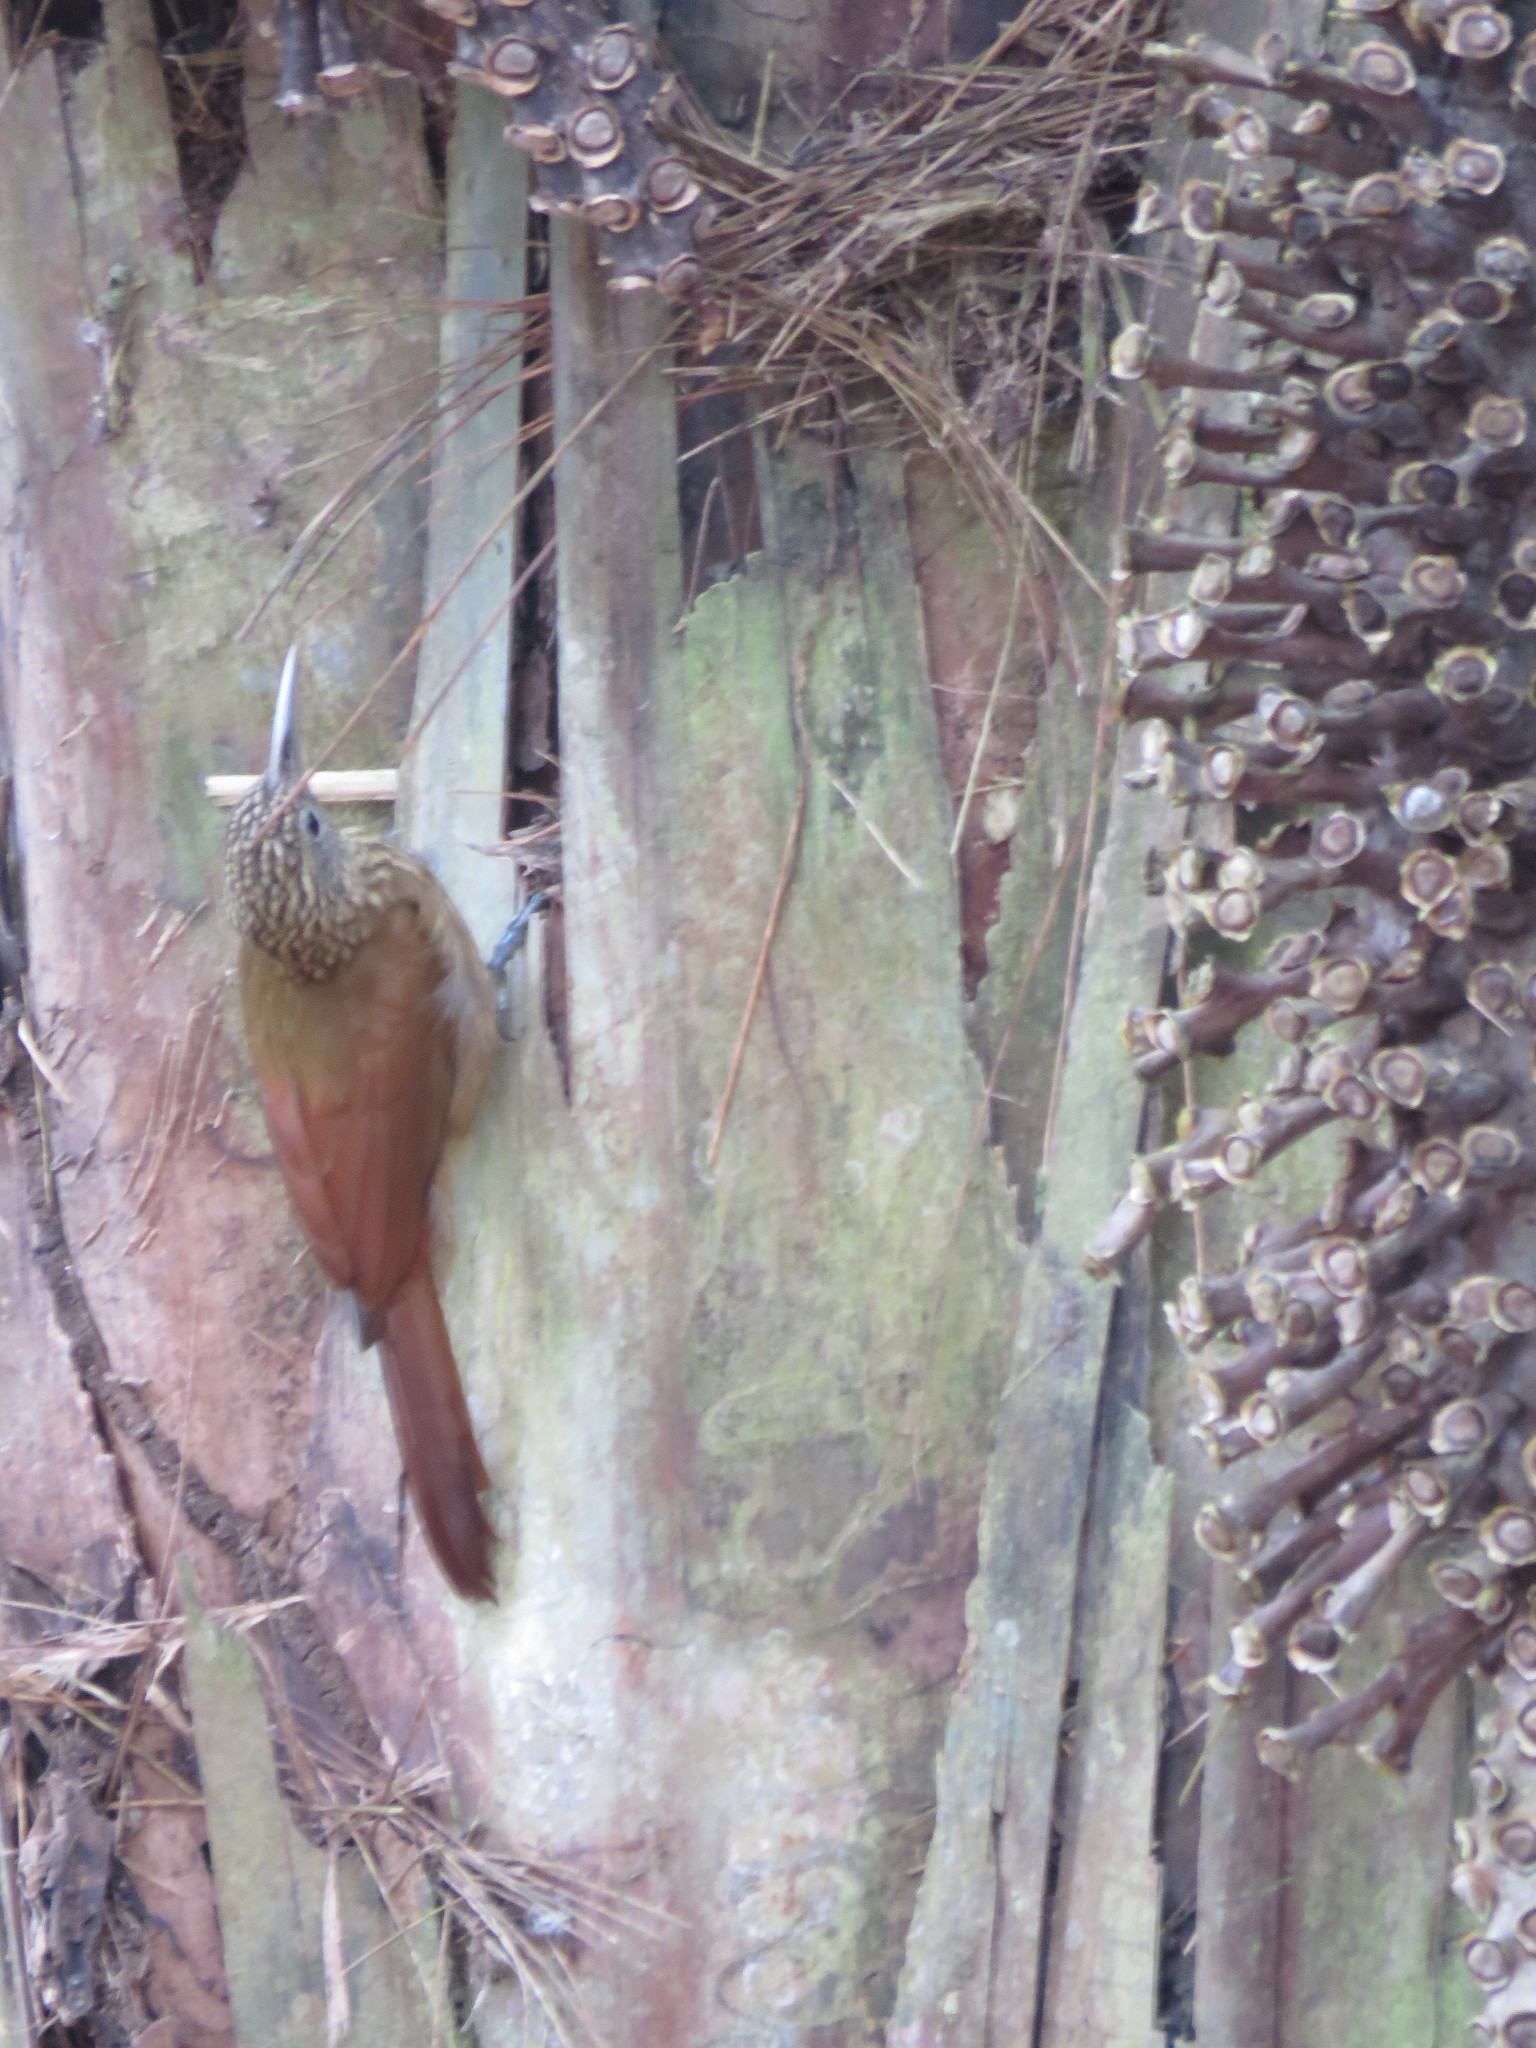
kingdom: Animalia
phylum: Chordata
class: Aves
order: Passeriformes
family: Furnariidae
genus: Xiphorhynchus
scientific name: Xiphorhynchus guttatus
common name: Buff-throated woodcreeper
